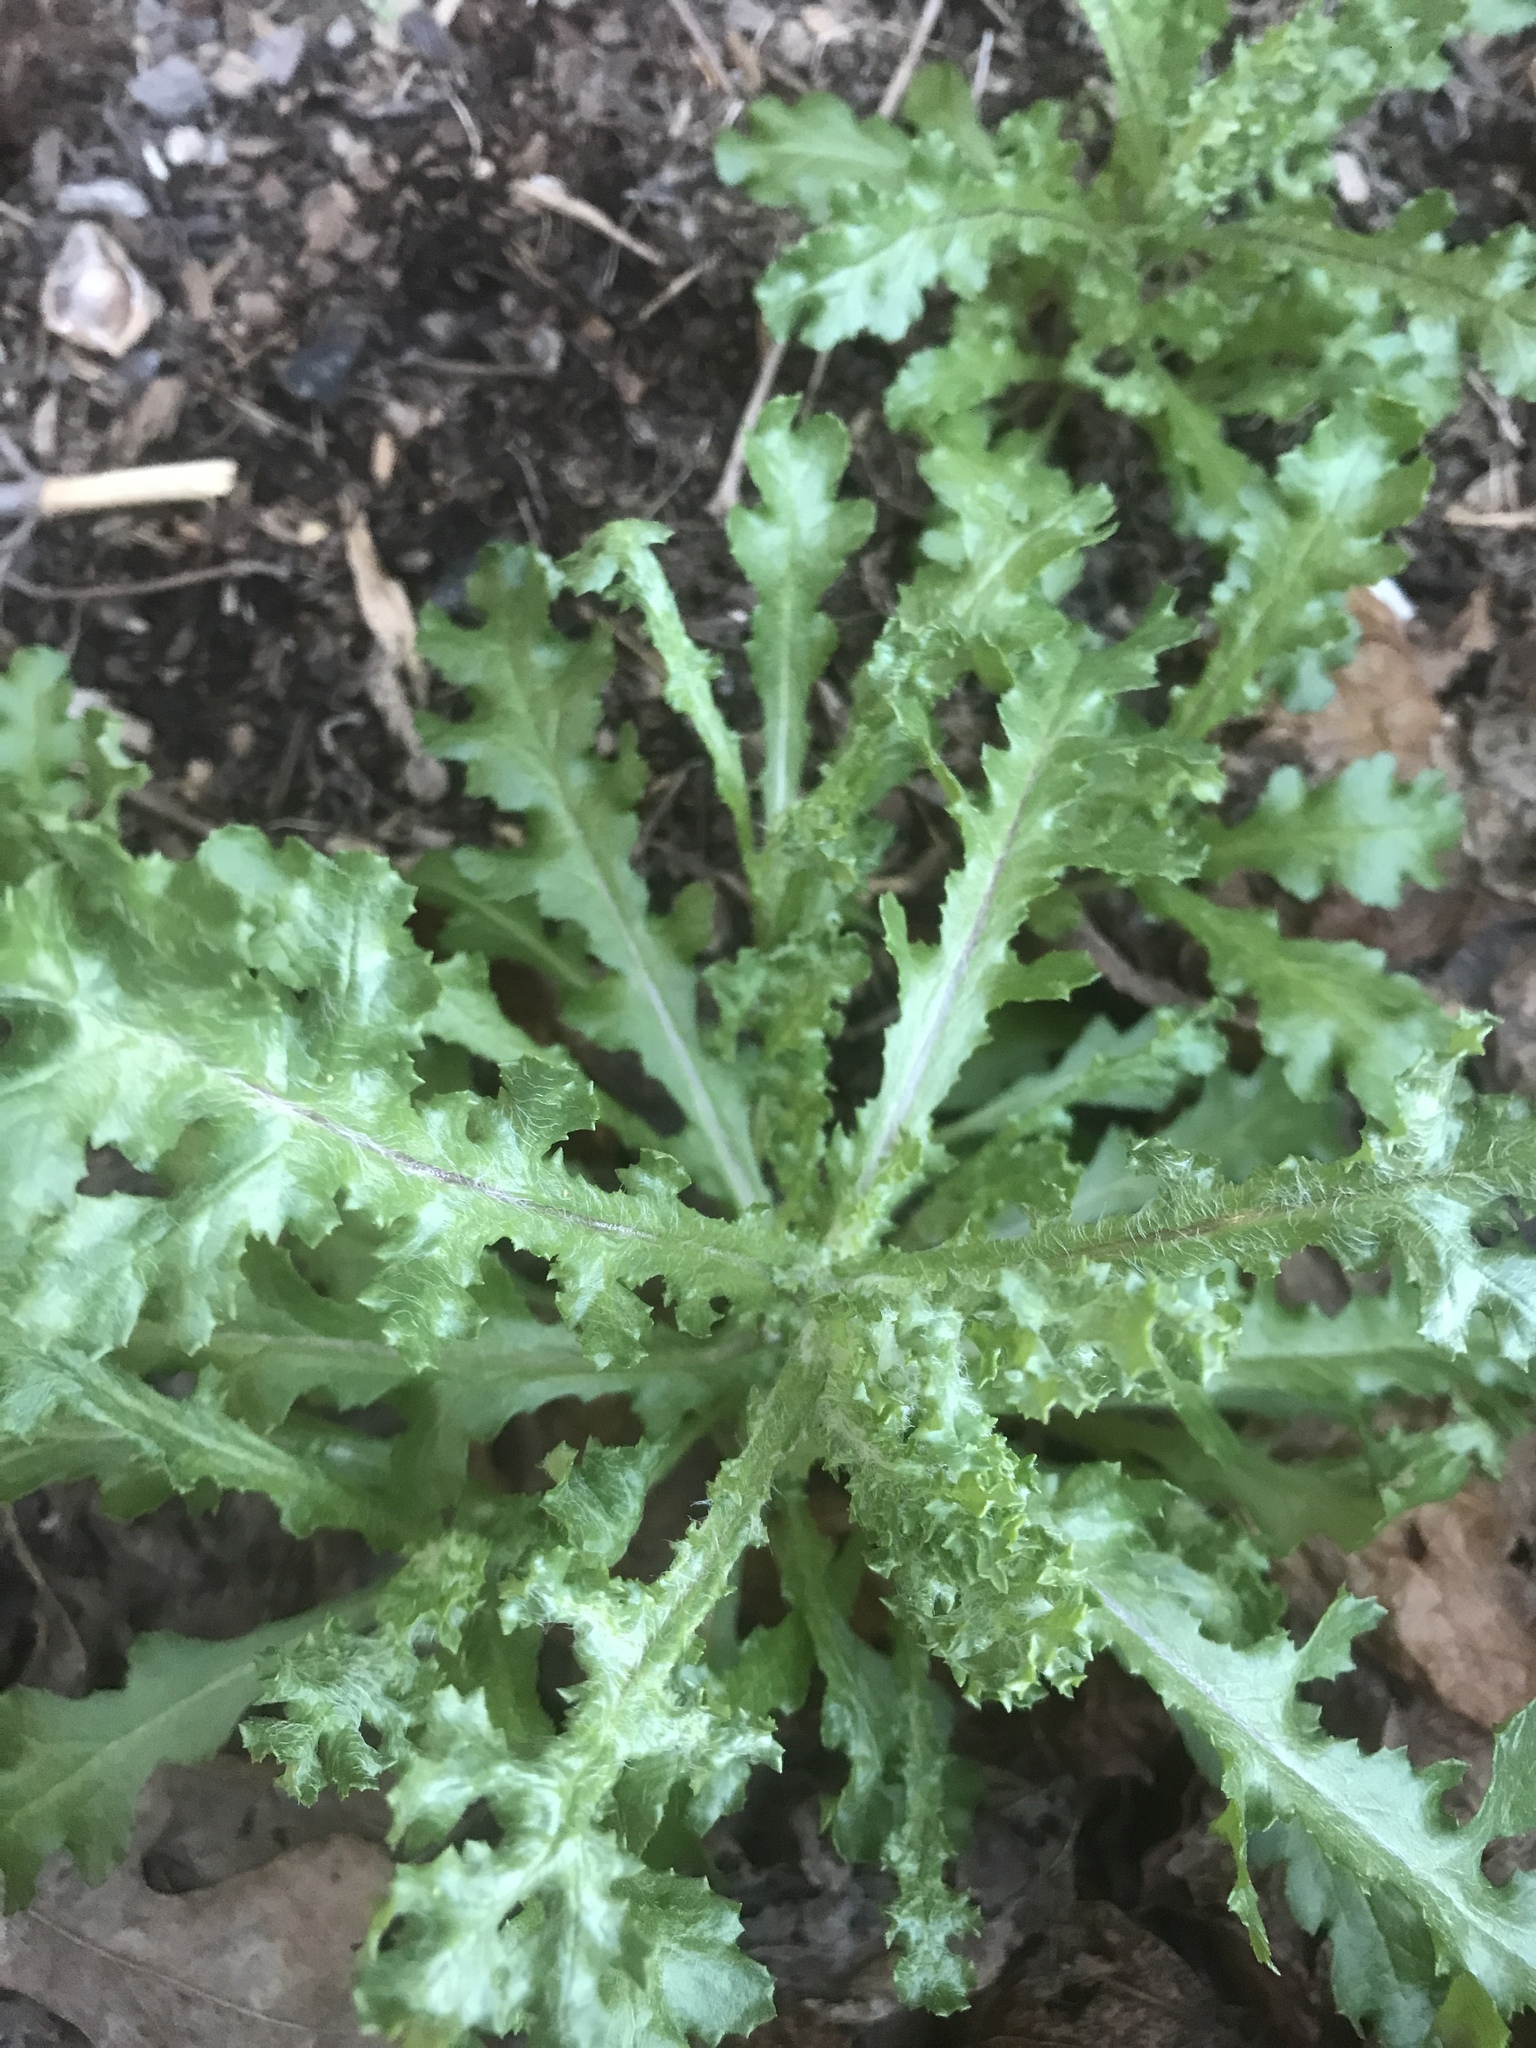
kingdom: Plantae
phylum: Tracheophyta
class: Magnoliopsida
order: Asterales
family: Asteraceae
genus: Senecio
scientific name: Senecio vulgaris
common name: Old-man-in-the-spring
